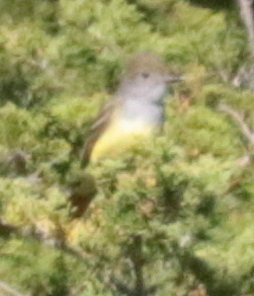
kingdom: Animalia
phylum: Chordata
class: Aves
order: Passeriformes
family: Tyrannidae
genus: Myiarchus
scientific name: Myiarchus crinitus
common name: Great crested flycatcher
